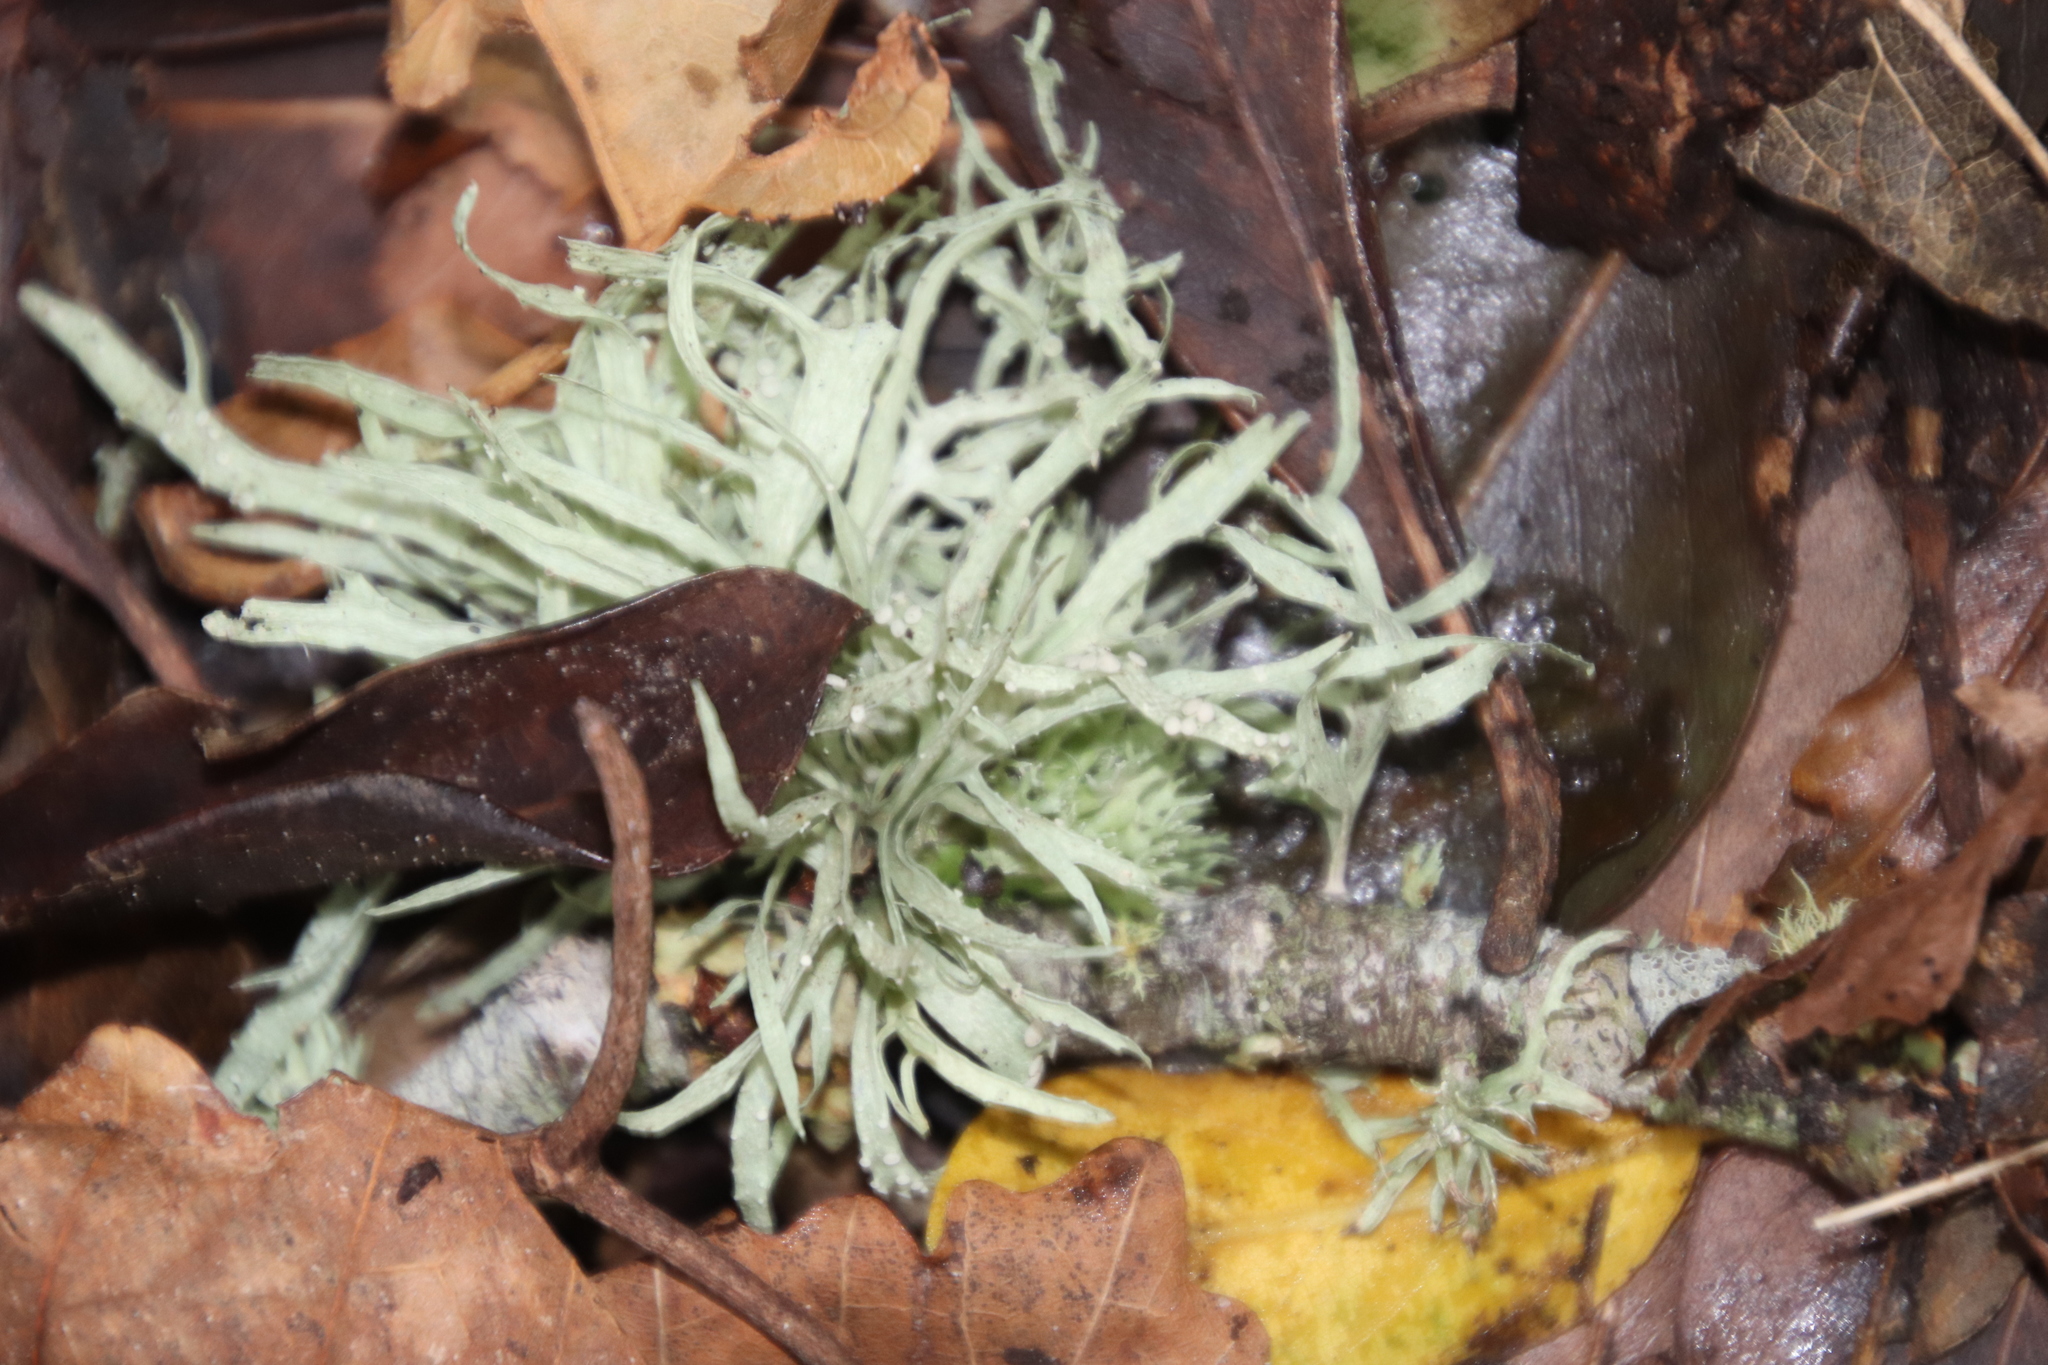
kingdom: Fungi
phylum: Ascomycota
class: Lecanoromycetes
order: Lecanorales
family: Ramalinaceae
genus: Ramalina
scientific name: Ramalina celastri
